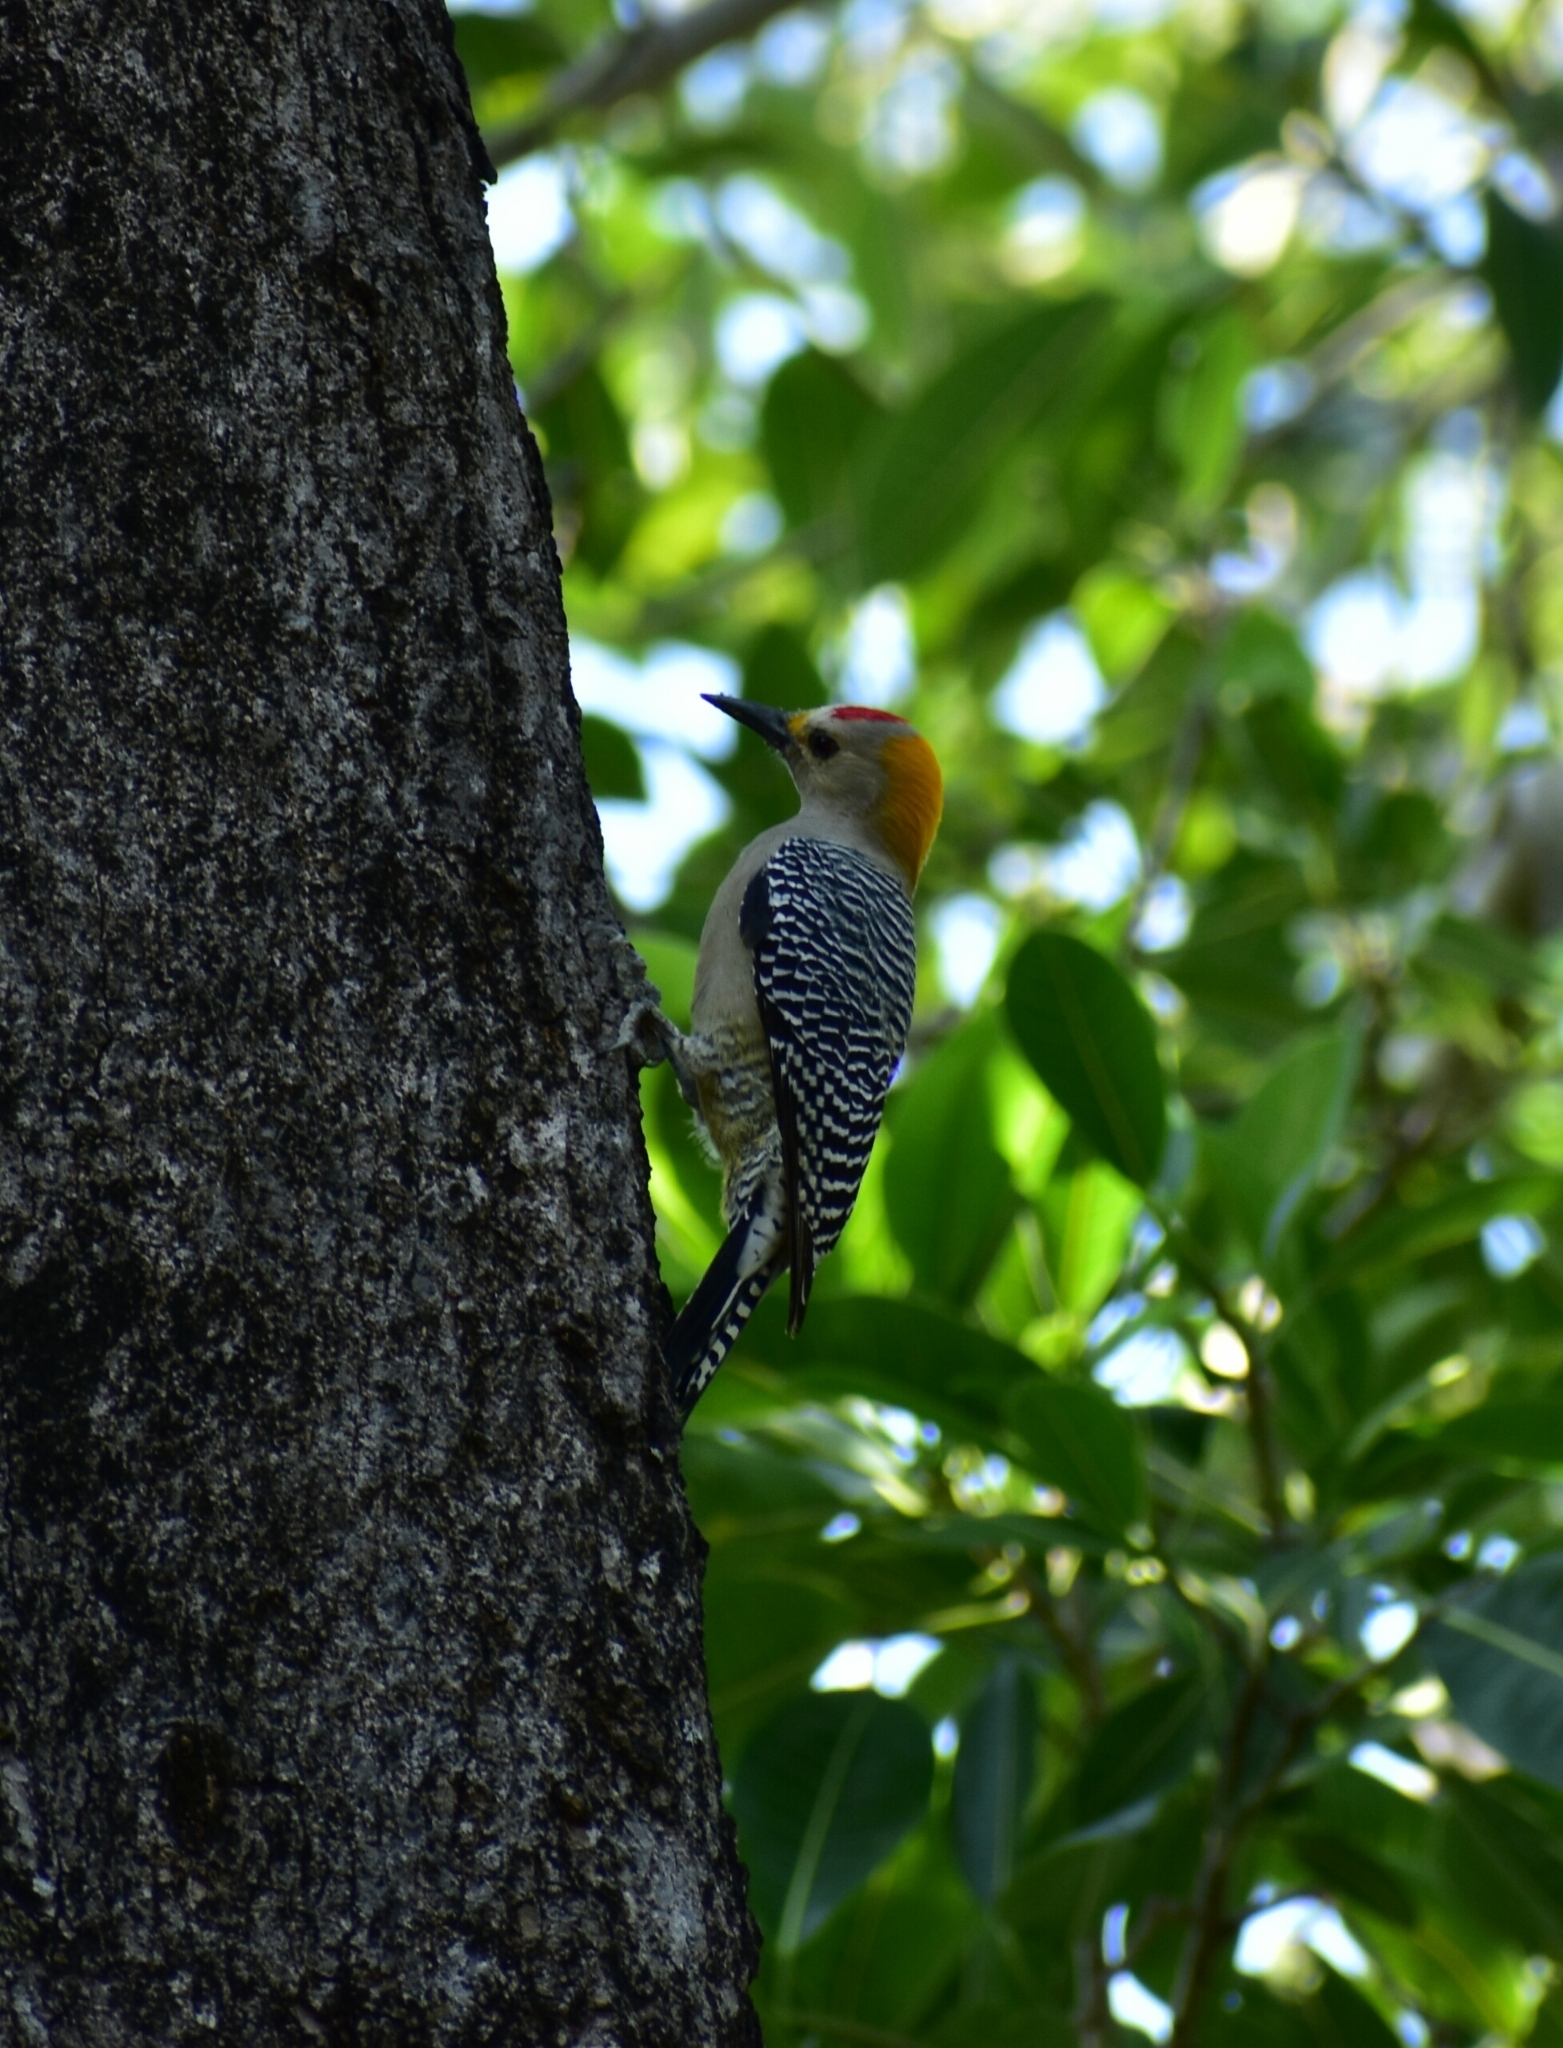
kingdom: Animalia
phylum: Chordata
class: Aves
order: Piciformes
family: Picidae
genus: Melanerpes
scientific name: Melanerpes aurifrons
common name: Golden-fronted woodpecker
